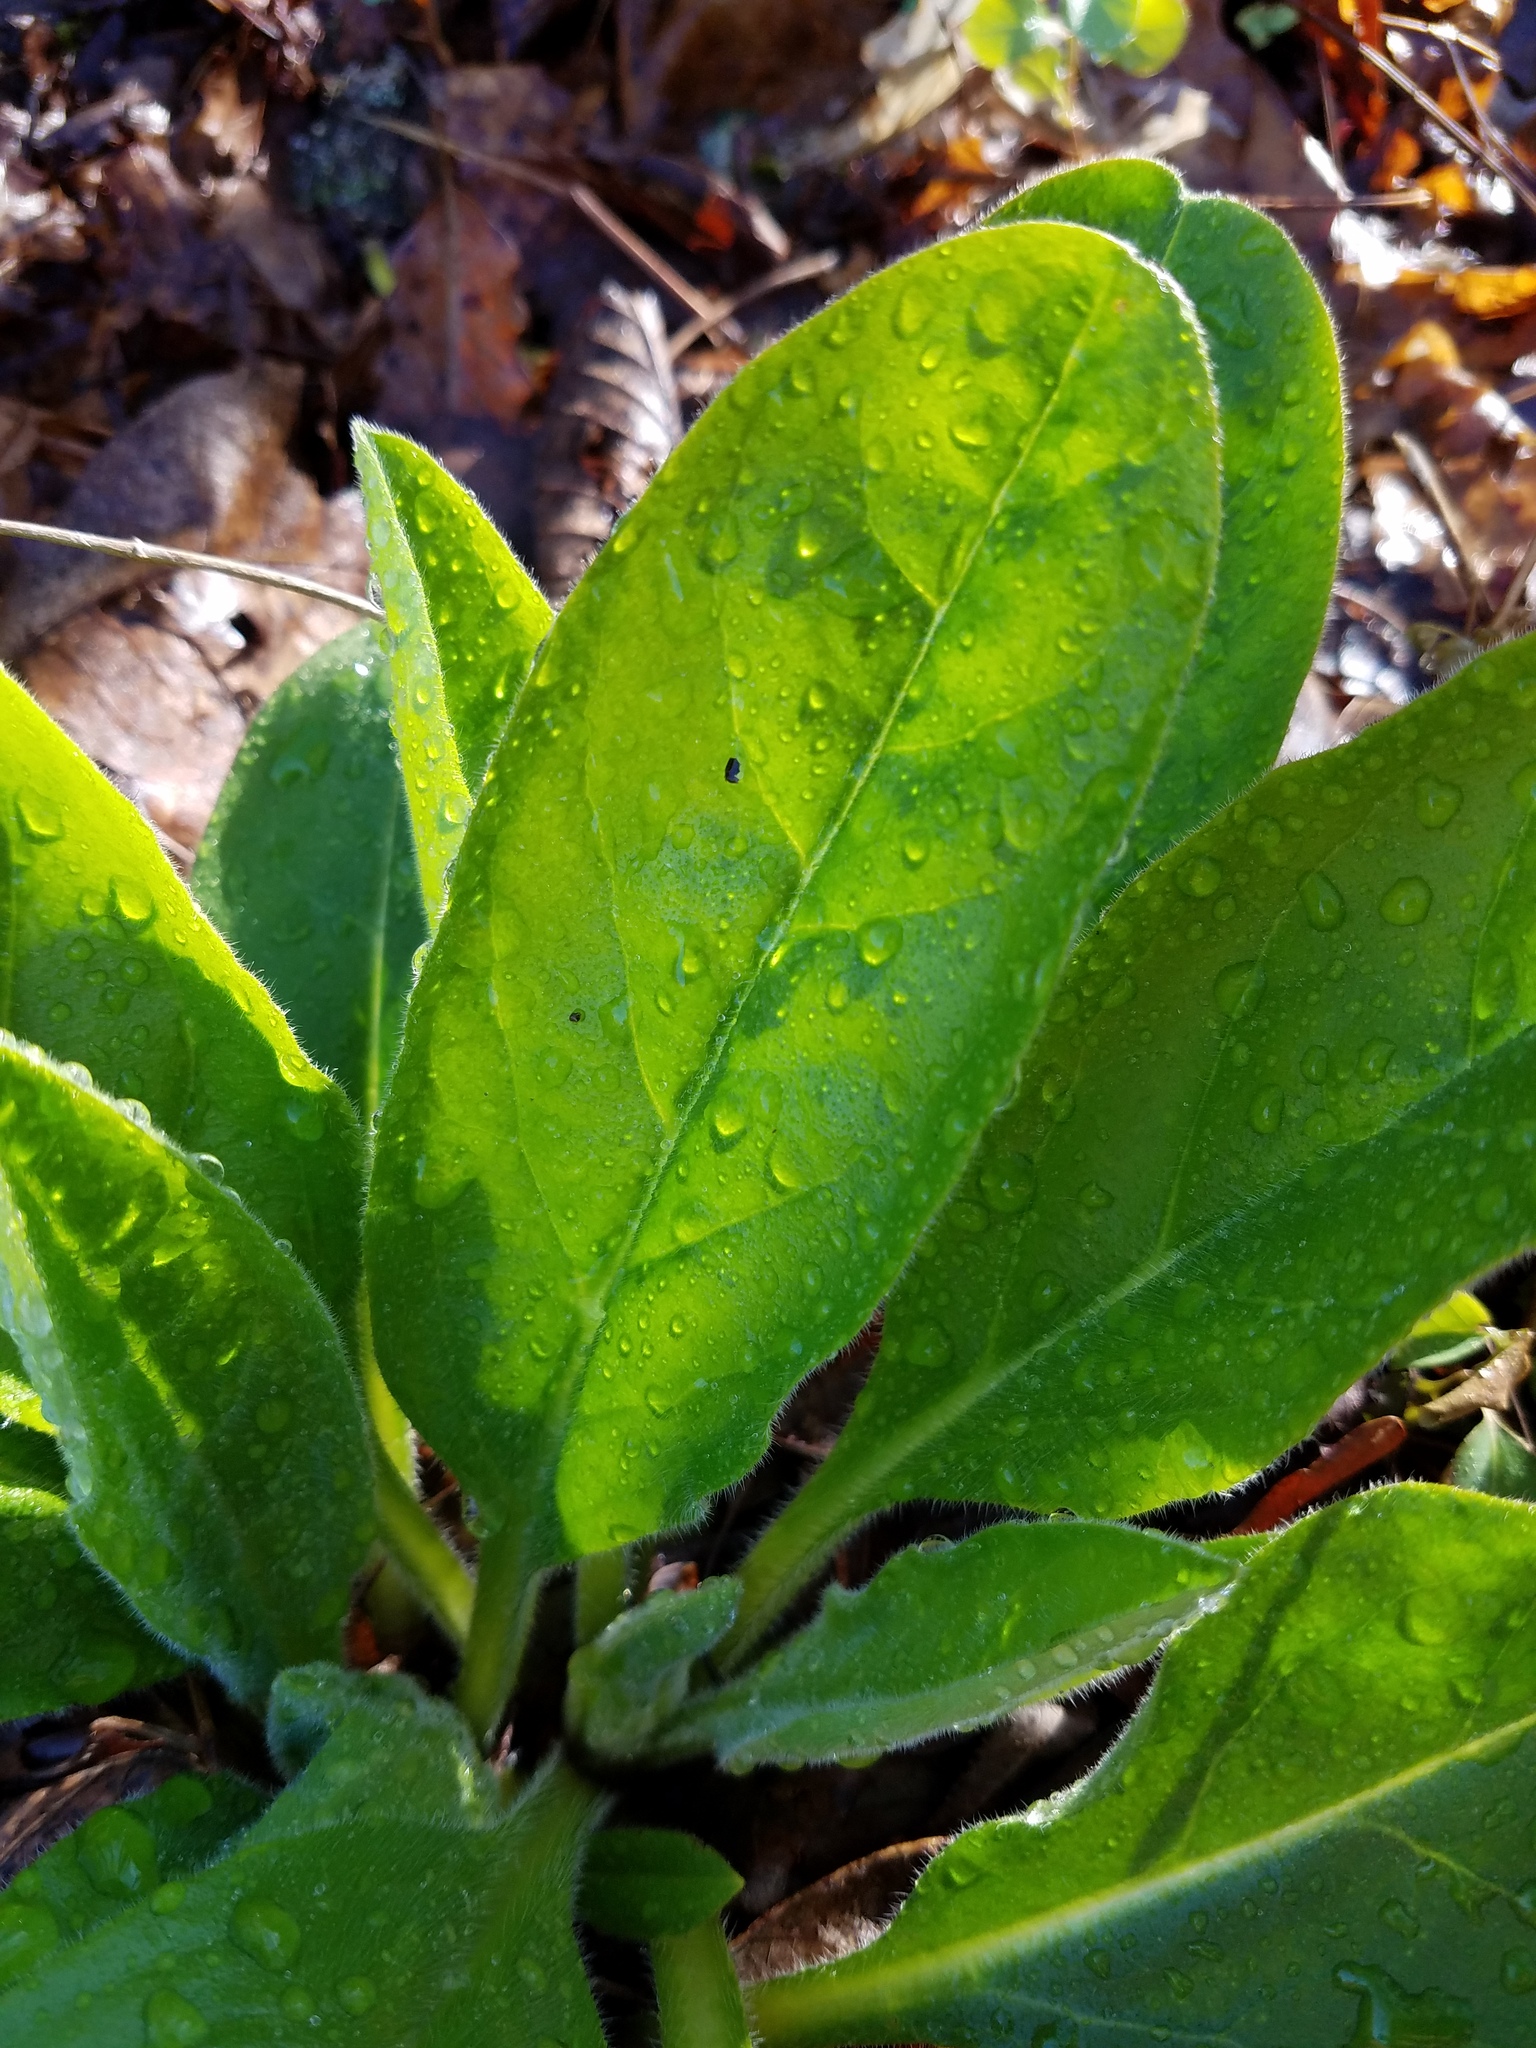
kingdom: Plantae
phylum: Tracheophyta
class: Magnoliopsida
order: Boraginales
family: Boraginaceae
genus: Andersonglossum
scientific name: Andersonglossum virginianum
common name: Wild comfrey
